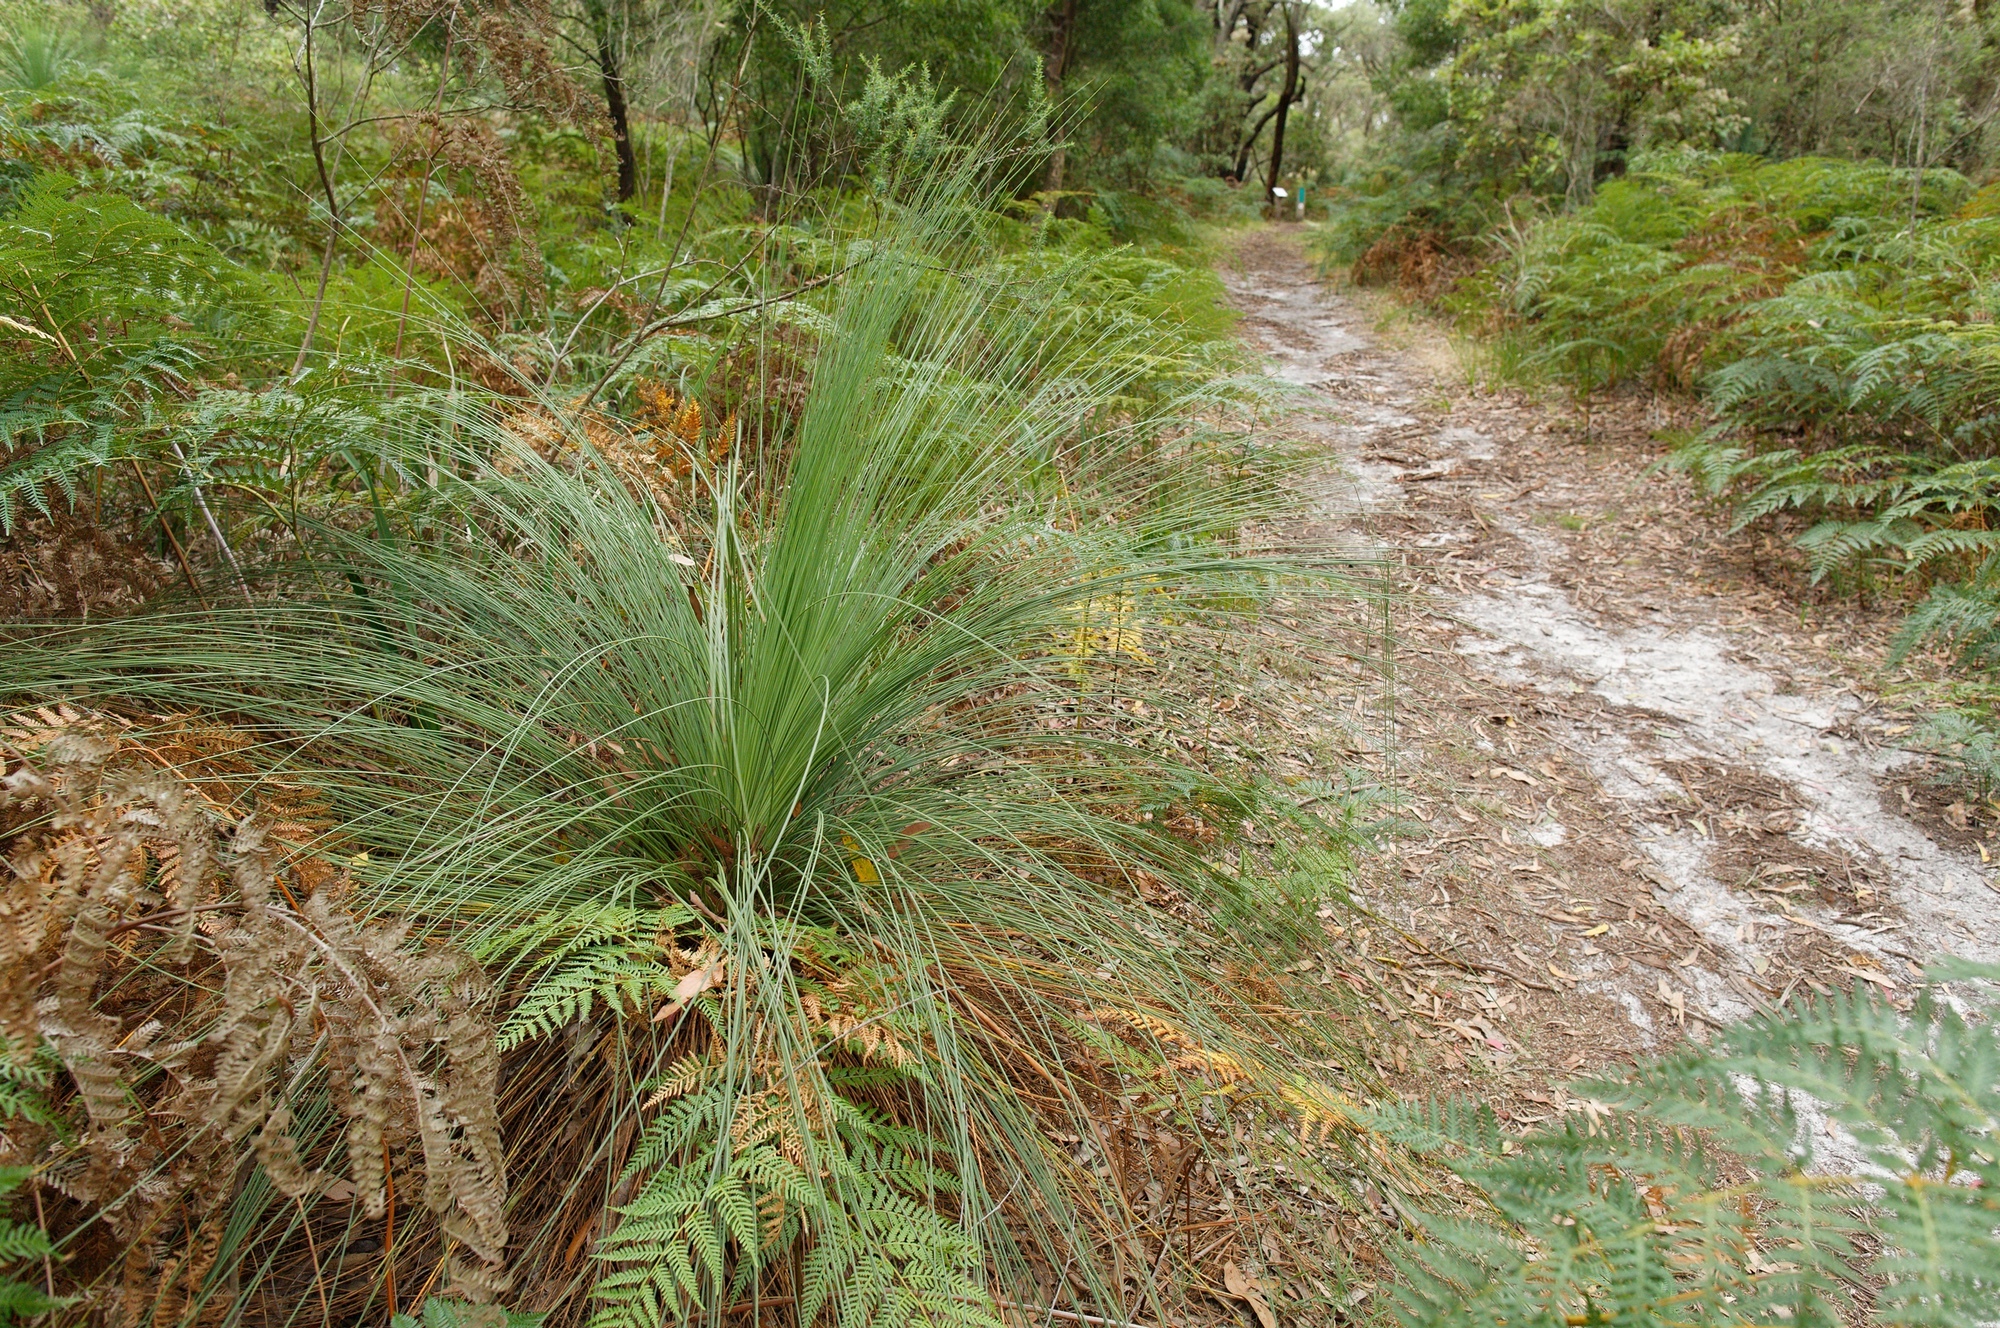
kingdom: Plantae
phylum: Tracheophyta
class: Liliopsida
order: Asparagales
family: Asphodelaceae
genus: Xanthorrhoea
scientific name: Xanthorrhoea australis
